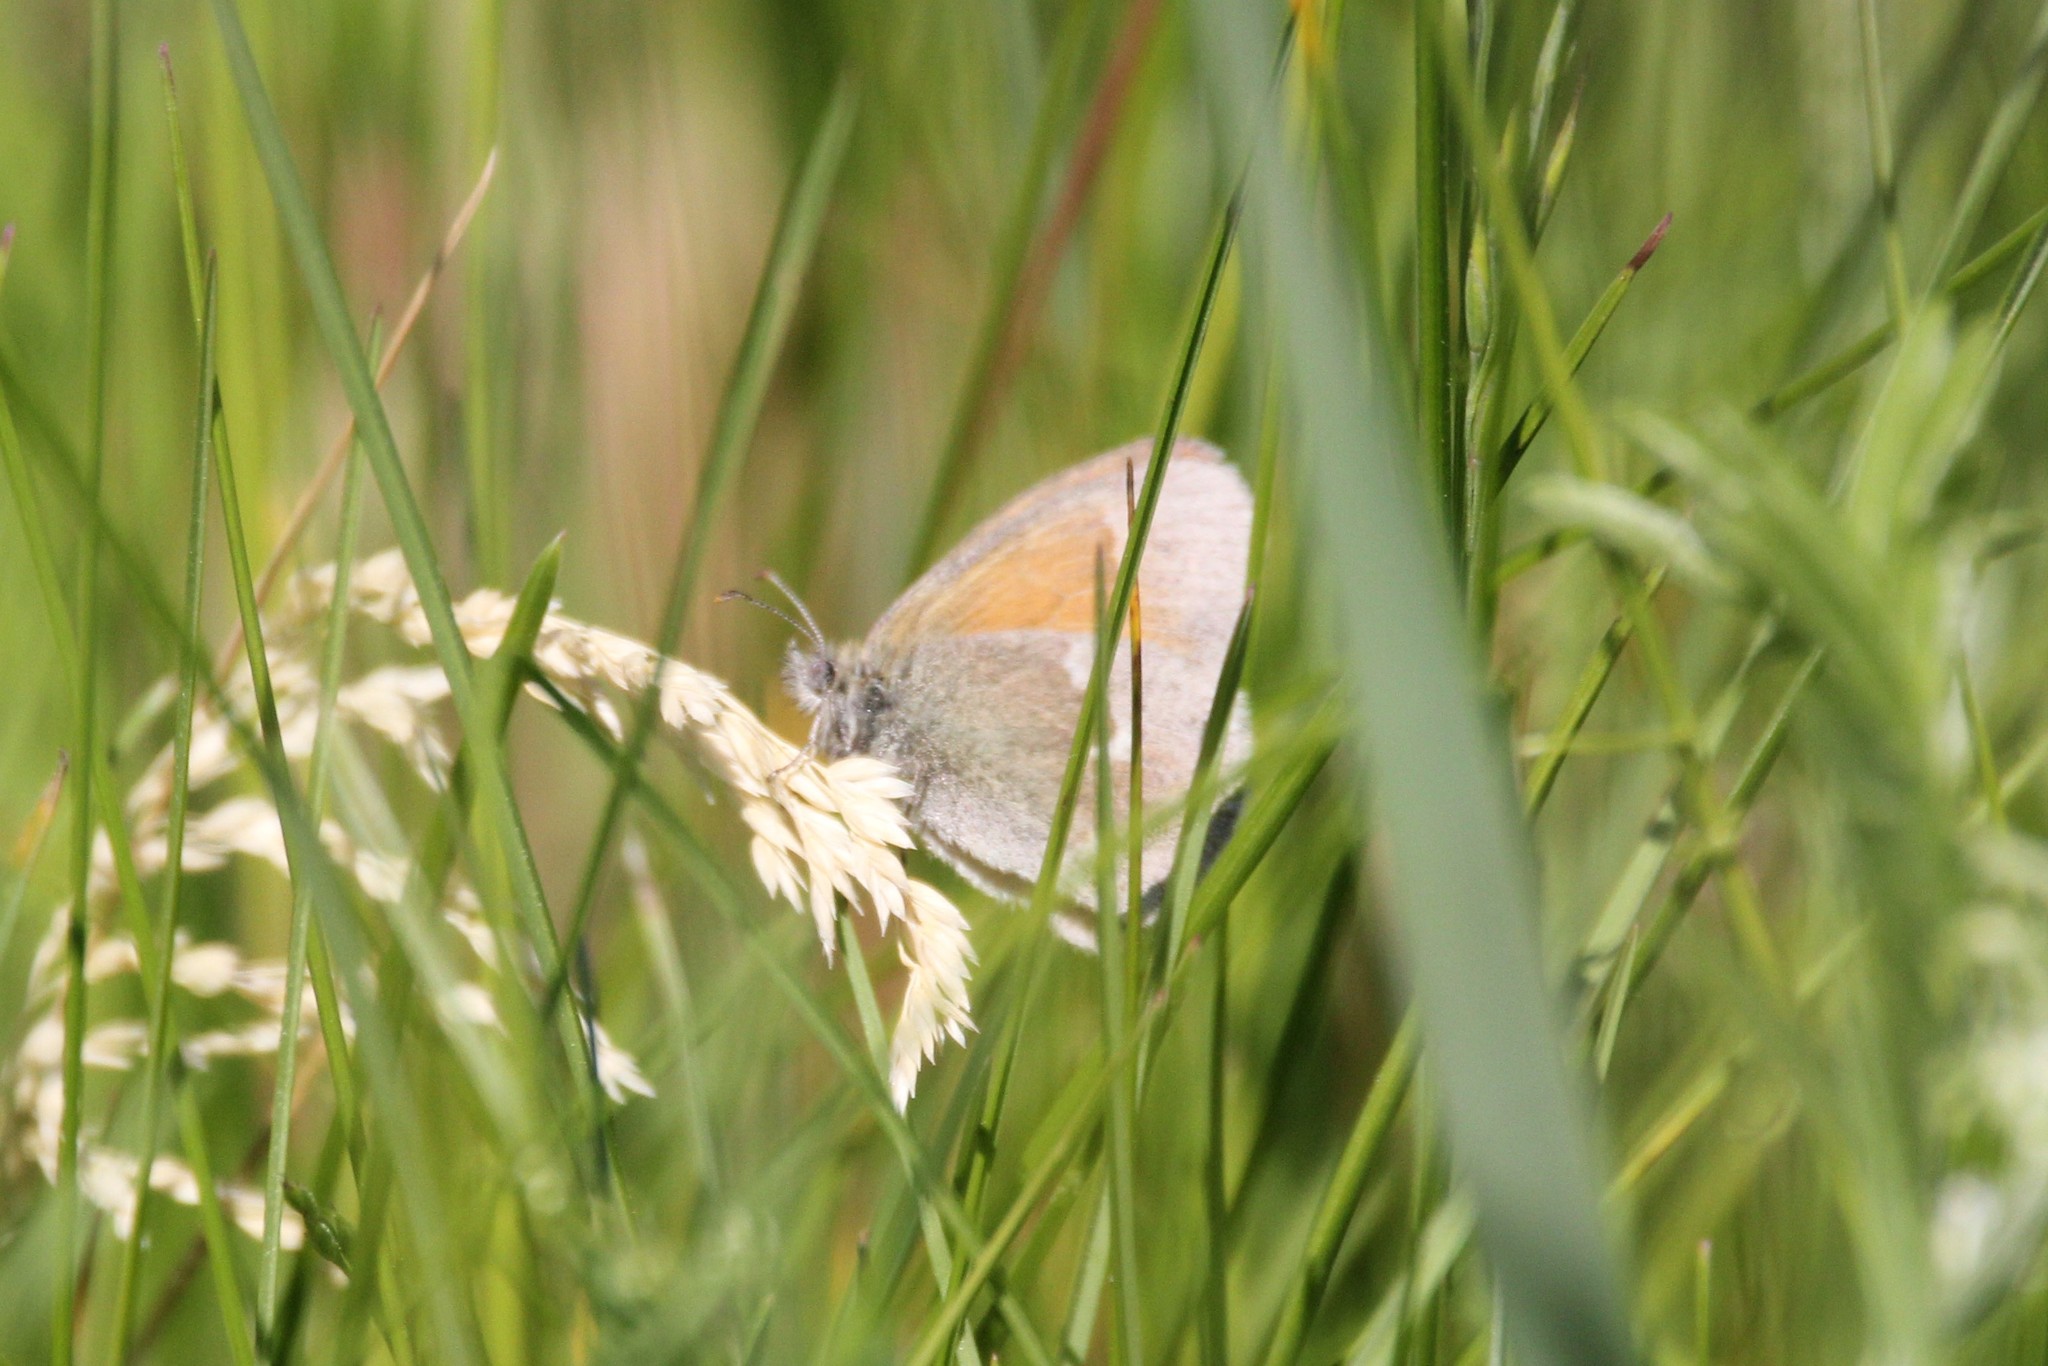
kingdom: Animalia
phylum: Arthropoda
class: Insecta
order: Lepidoptera
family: Nymphalidae
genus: Coenonympha
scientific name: Coenonympha california
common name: Common ringlet
